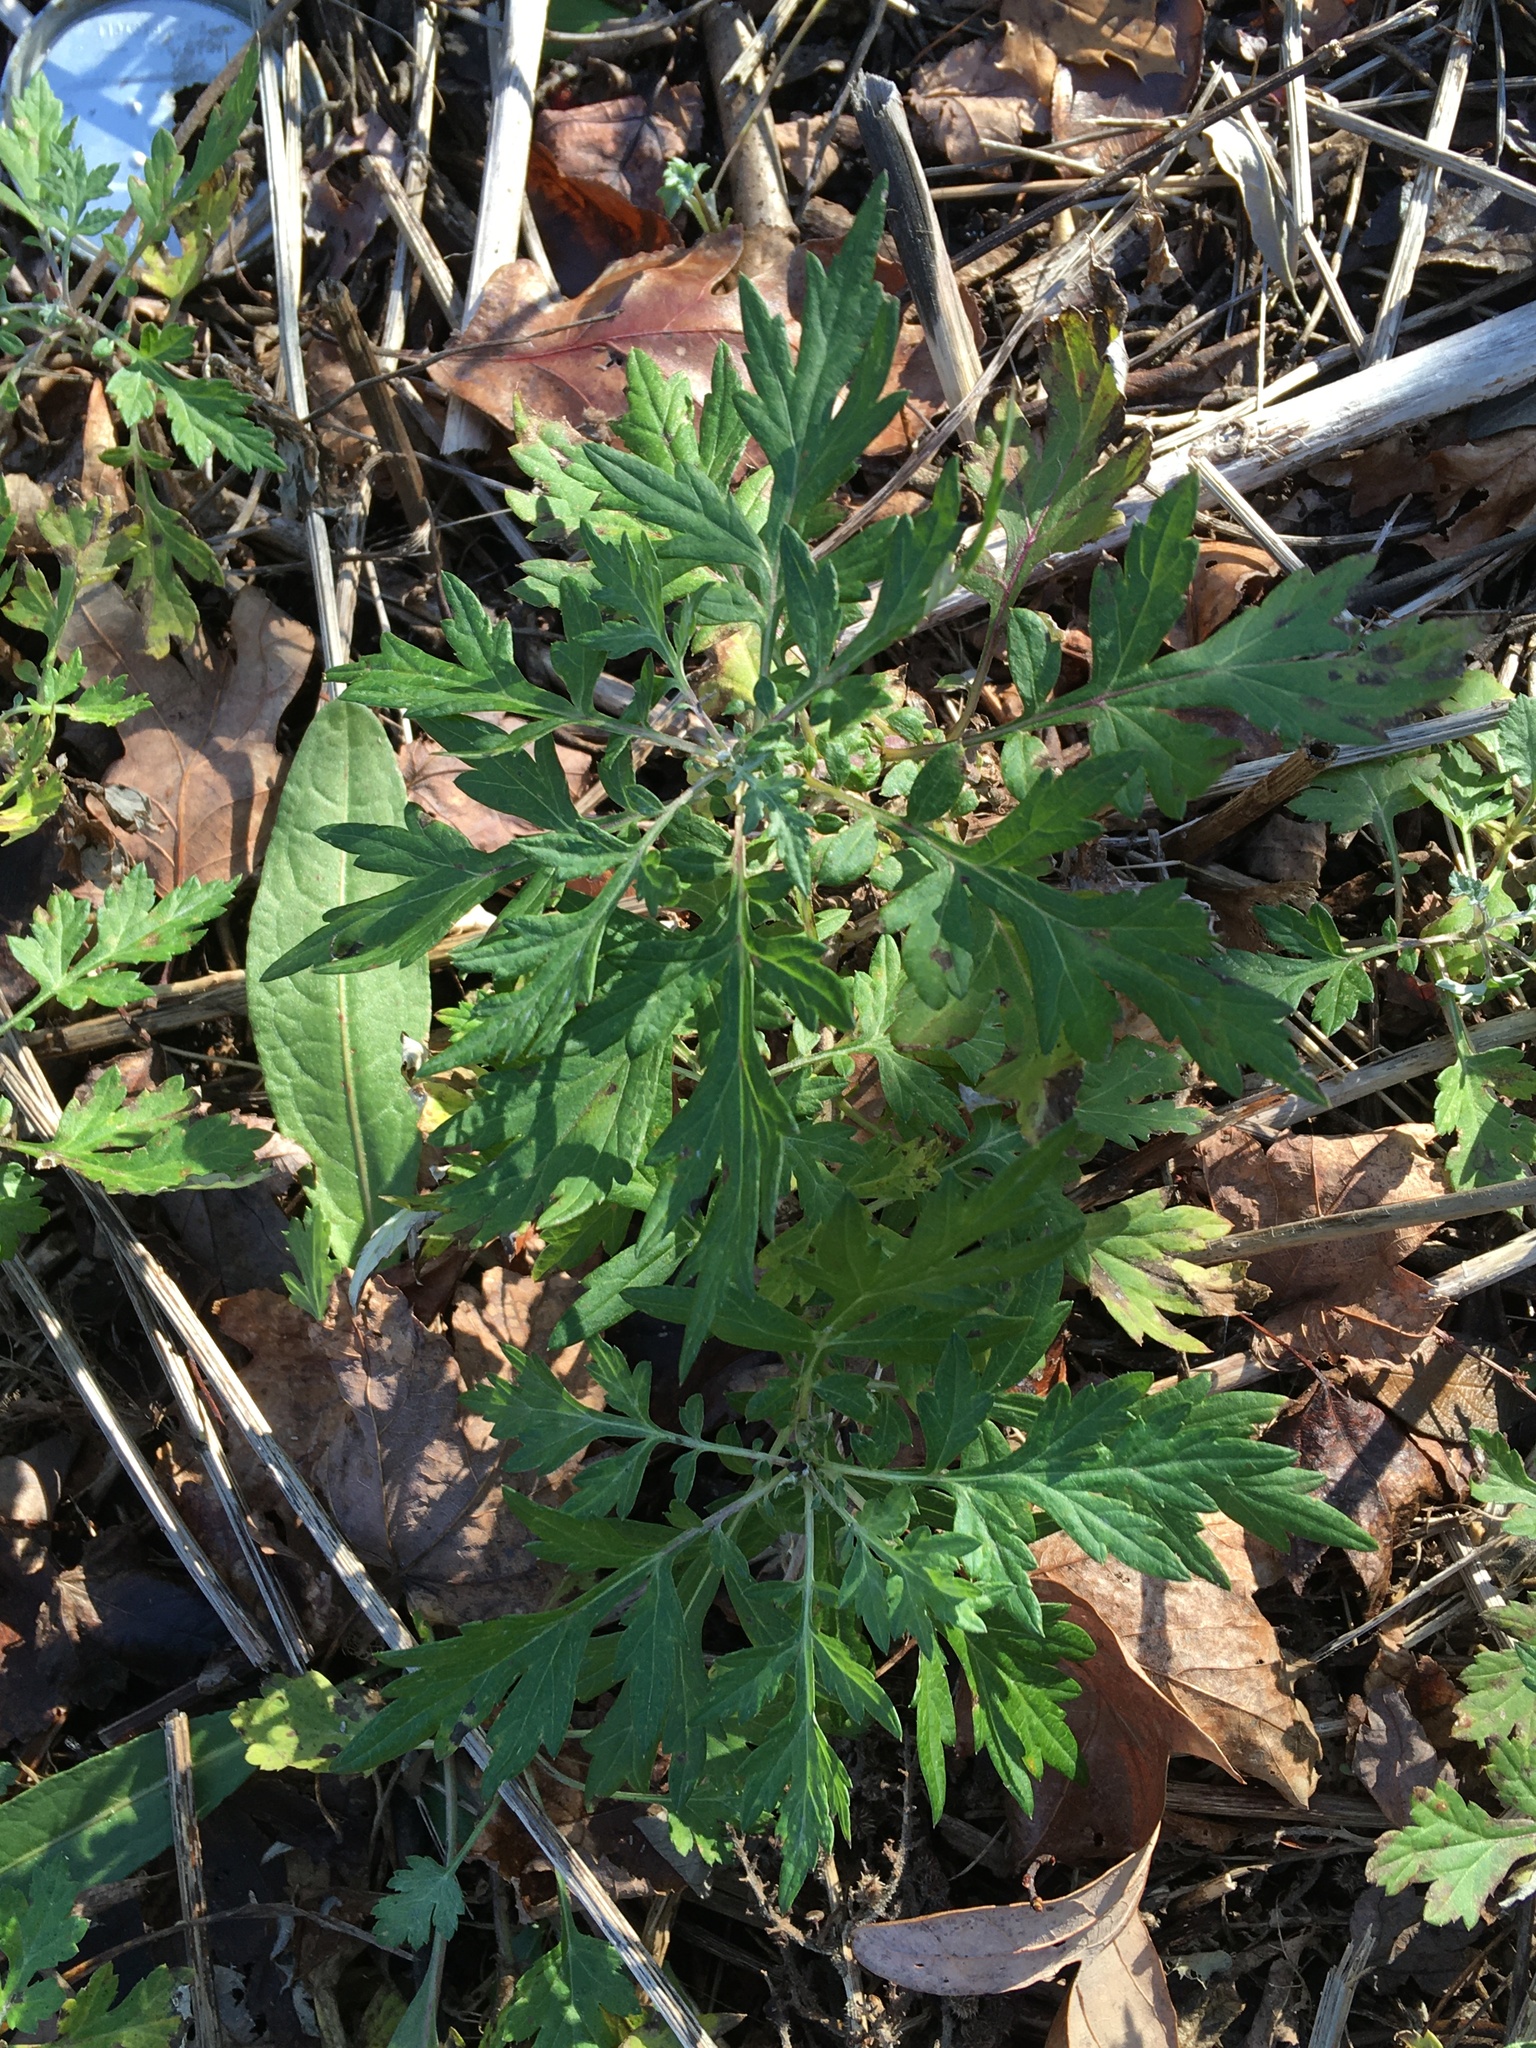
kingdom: Plantae
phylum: Tracheophyta
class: Magnoliopsida
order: Asterales
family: Asteraceae
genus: Artemisia
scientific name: Artemisia vulgaris
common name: Mugwort
